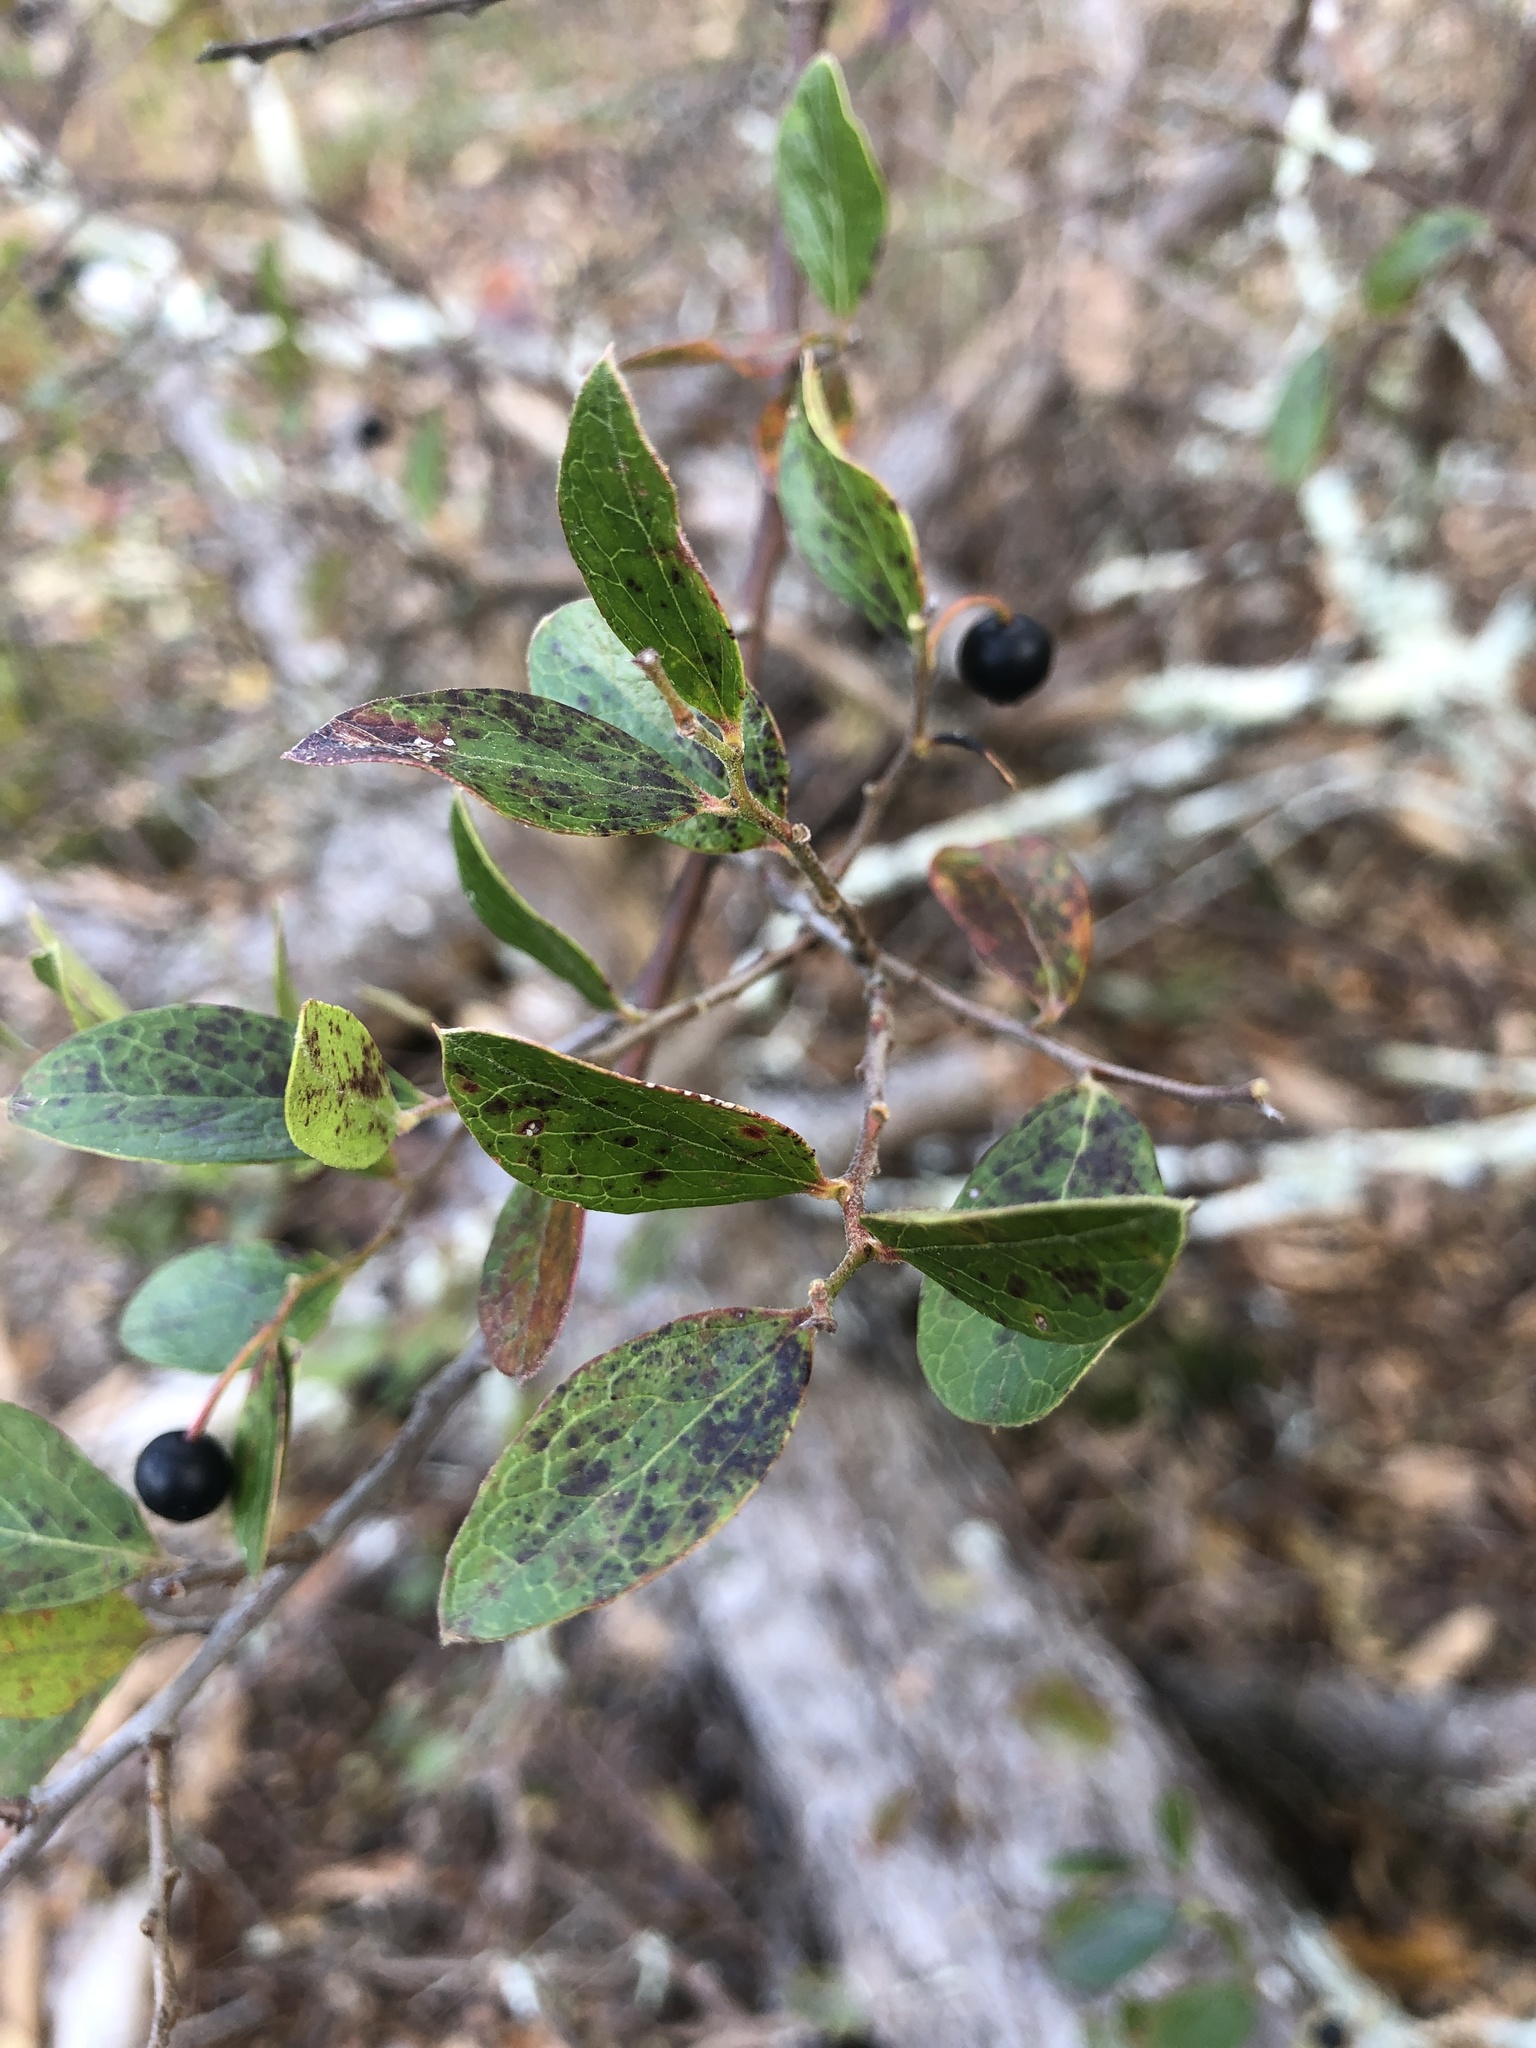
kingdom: Plantae
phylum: Tracheophyta
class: Magnoliopsida
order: Ericales
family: Ericaceae
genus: Vaccinium
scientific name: Vaccinium arboreum
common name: Farkleberry
